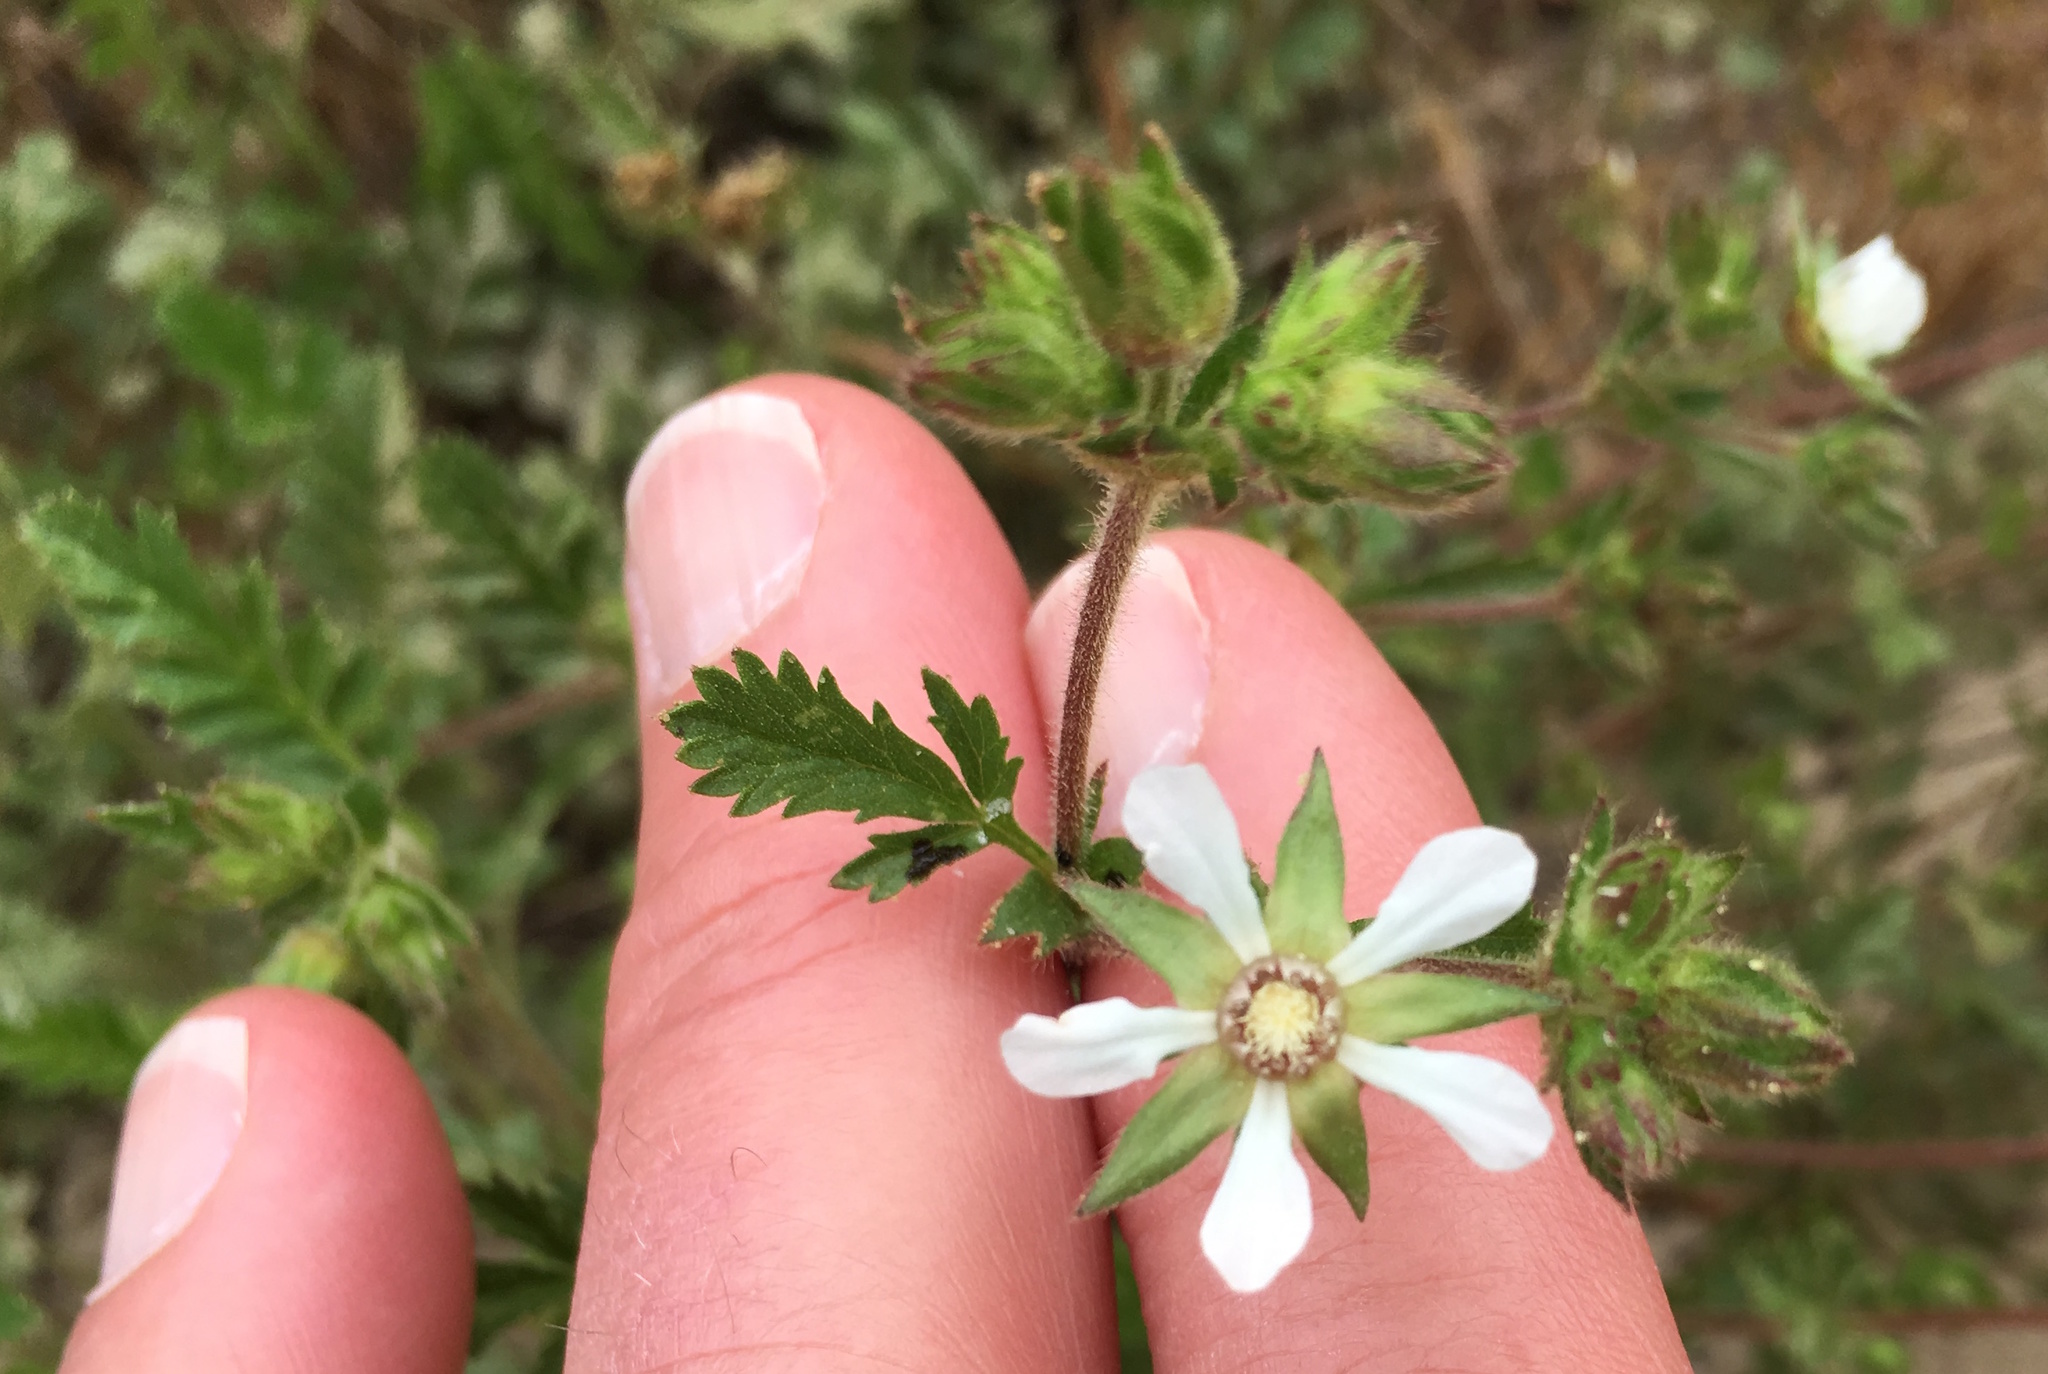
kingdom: Plantae
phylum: Tracheophyta
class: Magnoliopsida
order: Rosales
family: Rosaceae
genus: Potentilla
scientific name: Potentilla lindleyi
